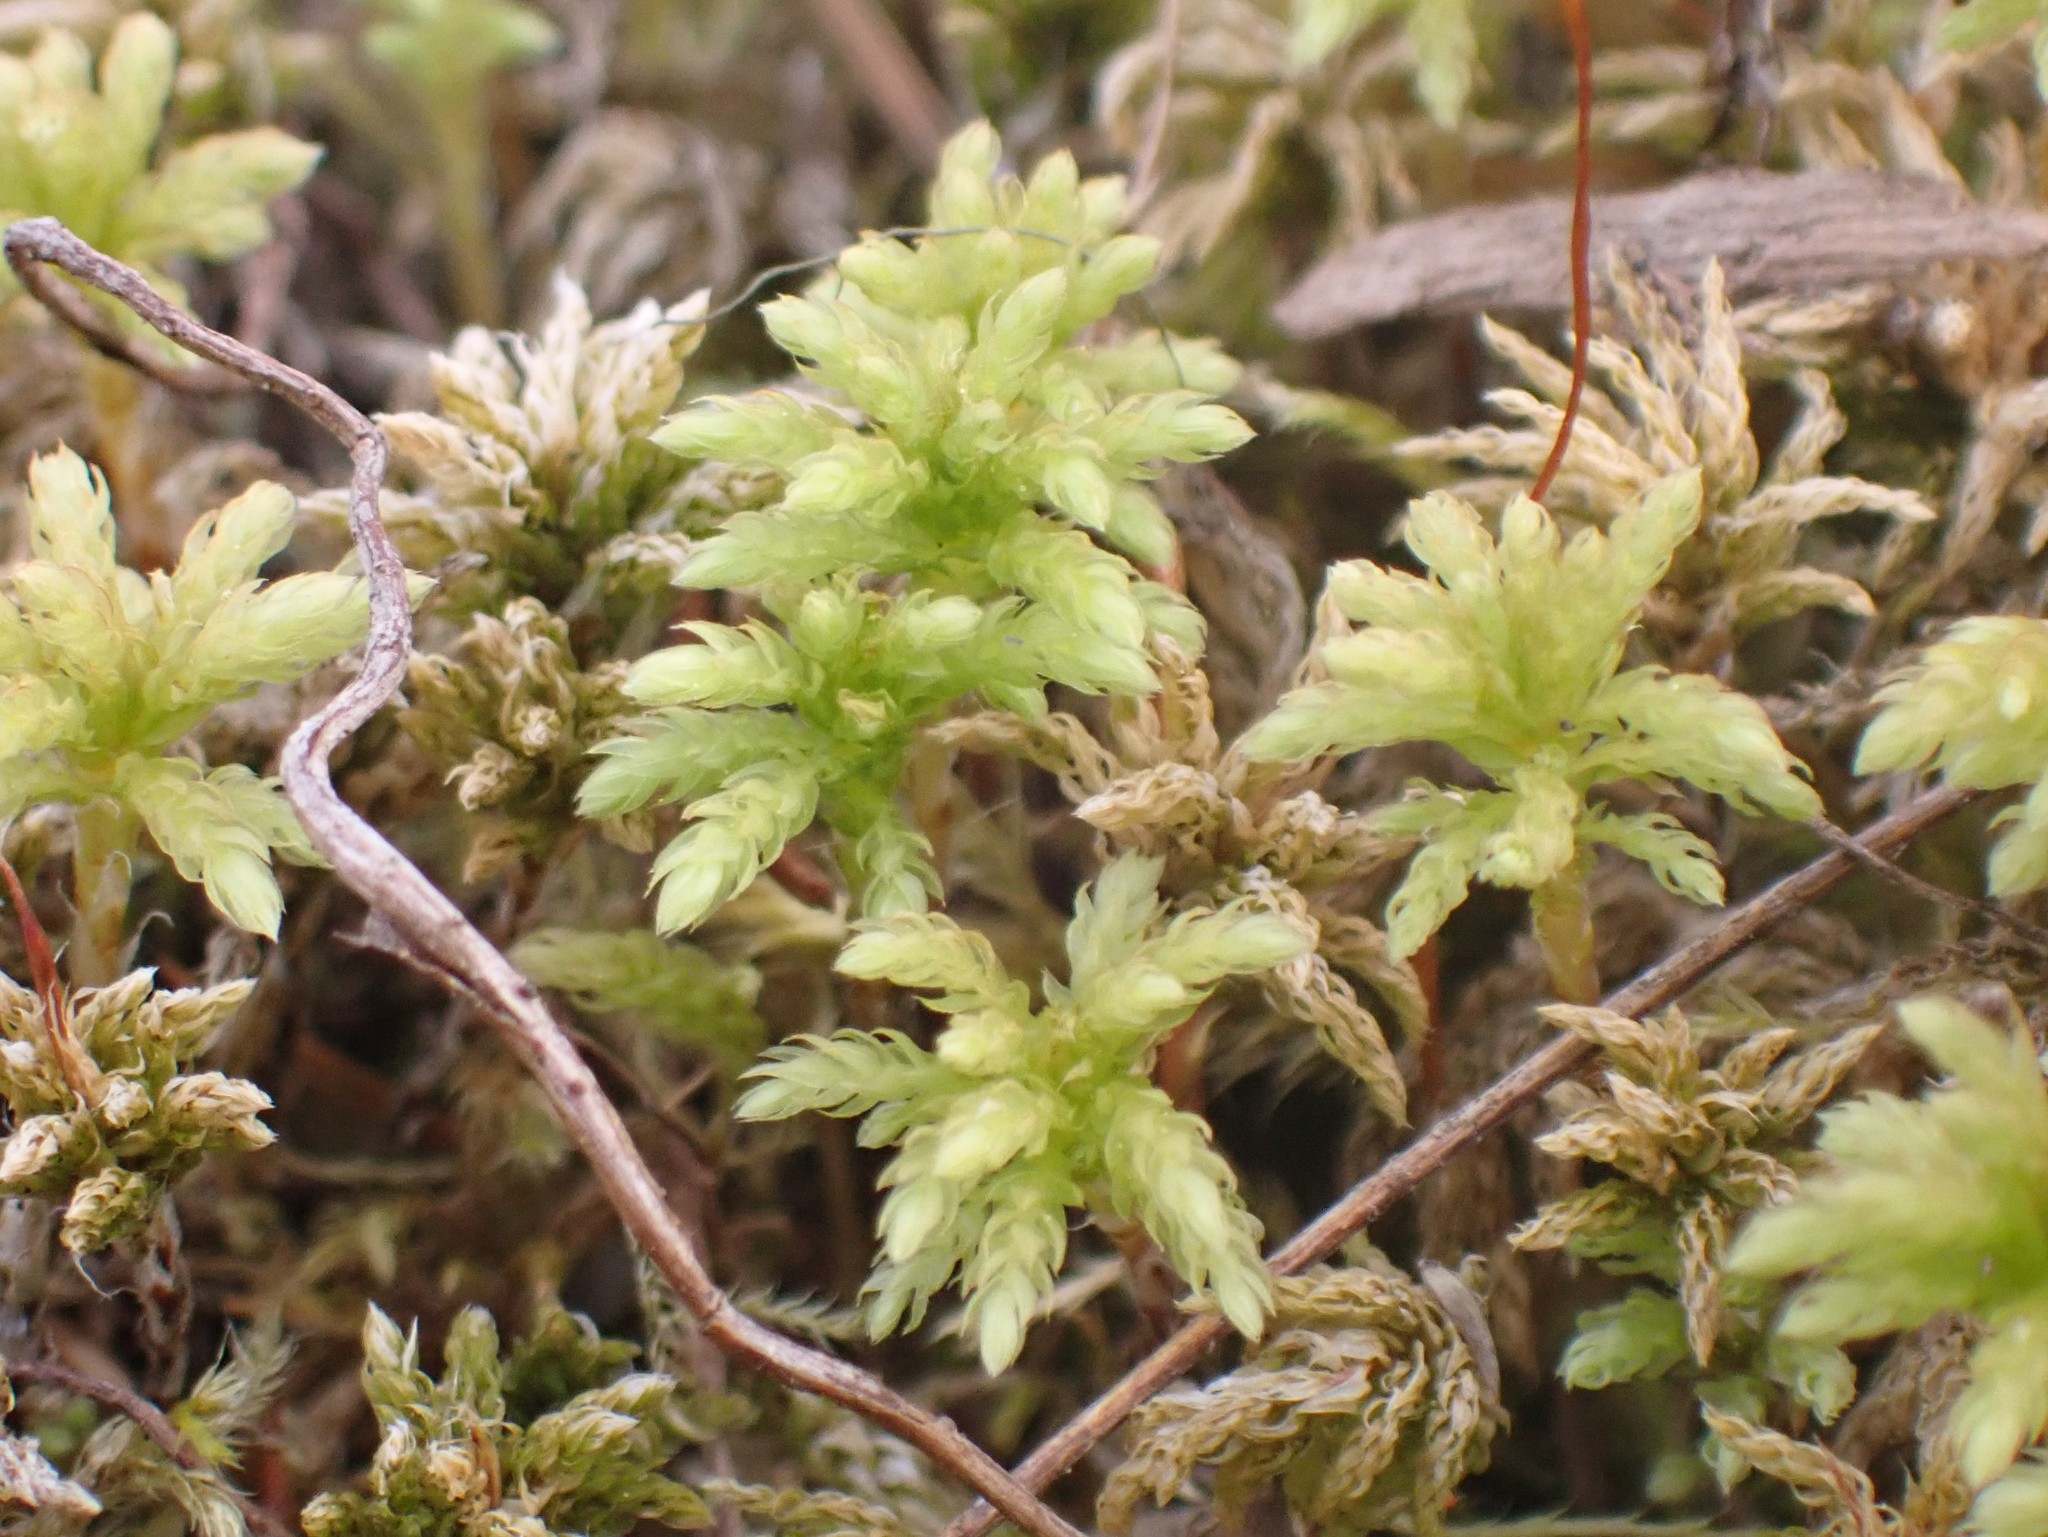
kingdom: Plantae
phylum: Bryophyta
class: Bryopsida
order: Bryales
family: Mniaceae
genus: Leucolepis
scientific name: Leucolepis acanthoneura
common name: Leucolepis umbrella moss
